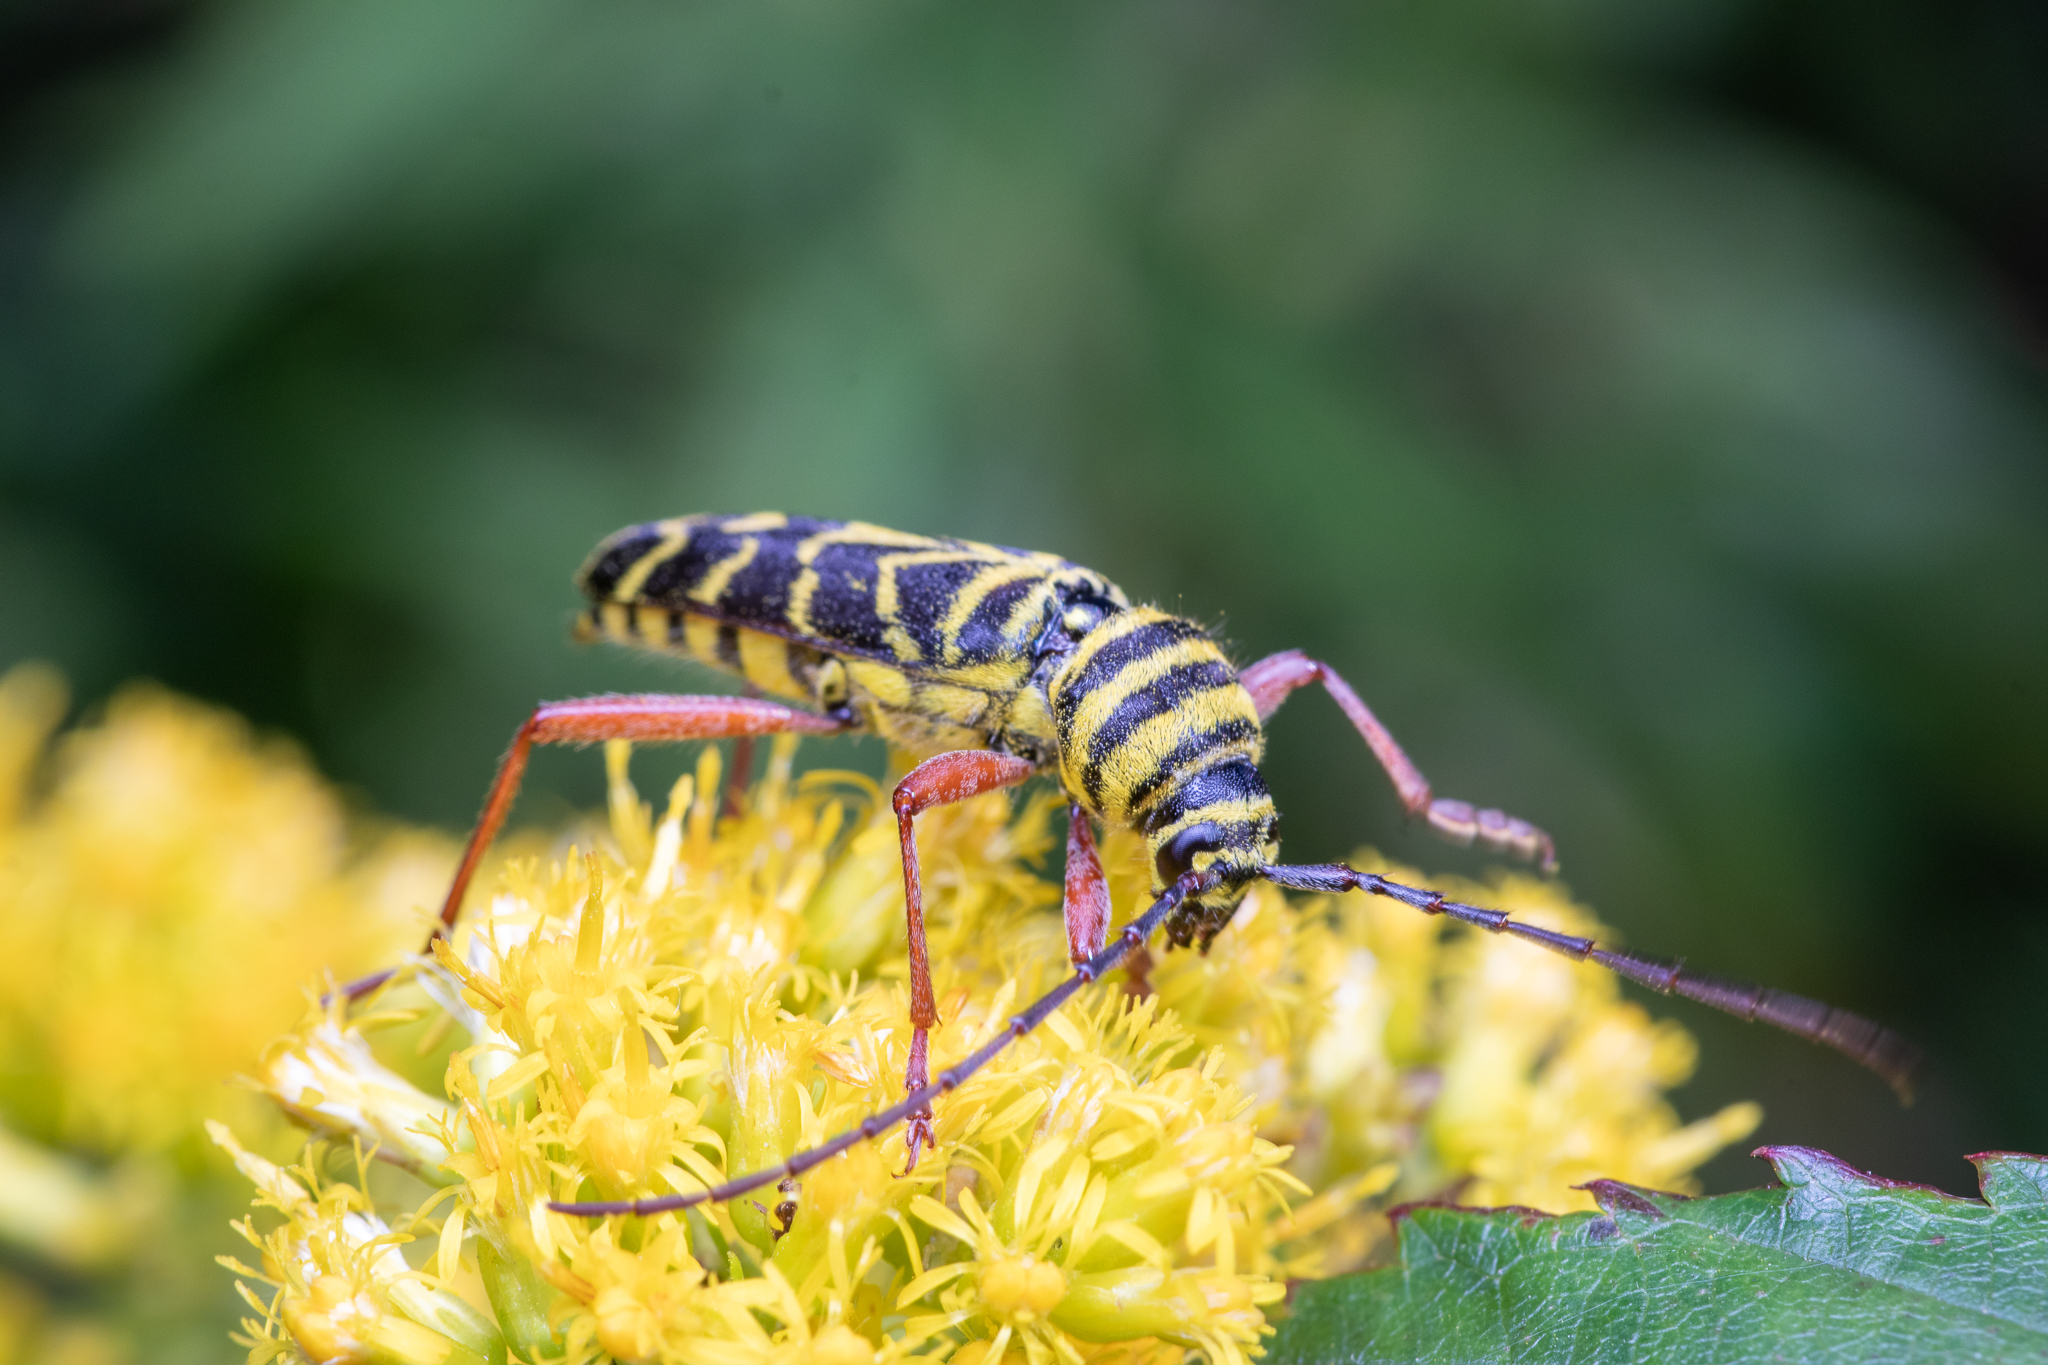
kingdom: Animalia
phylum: Arthropoda
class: Insecta
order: Coleoptera
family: Cerambycidae
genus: Megacyllene
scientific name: Megacyllene robiniae
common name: Locust borer
